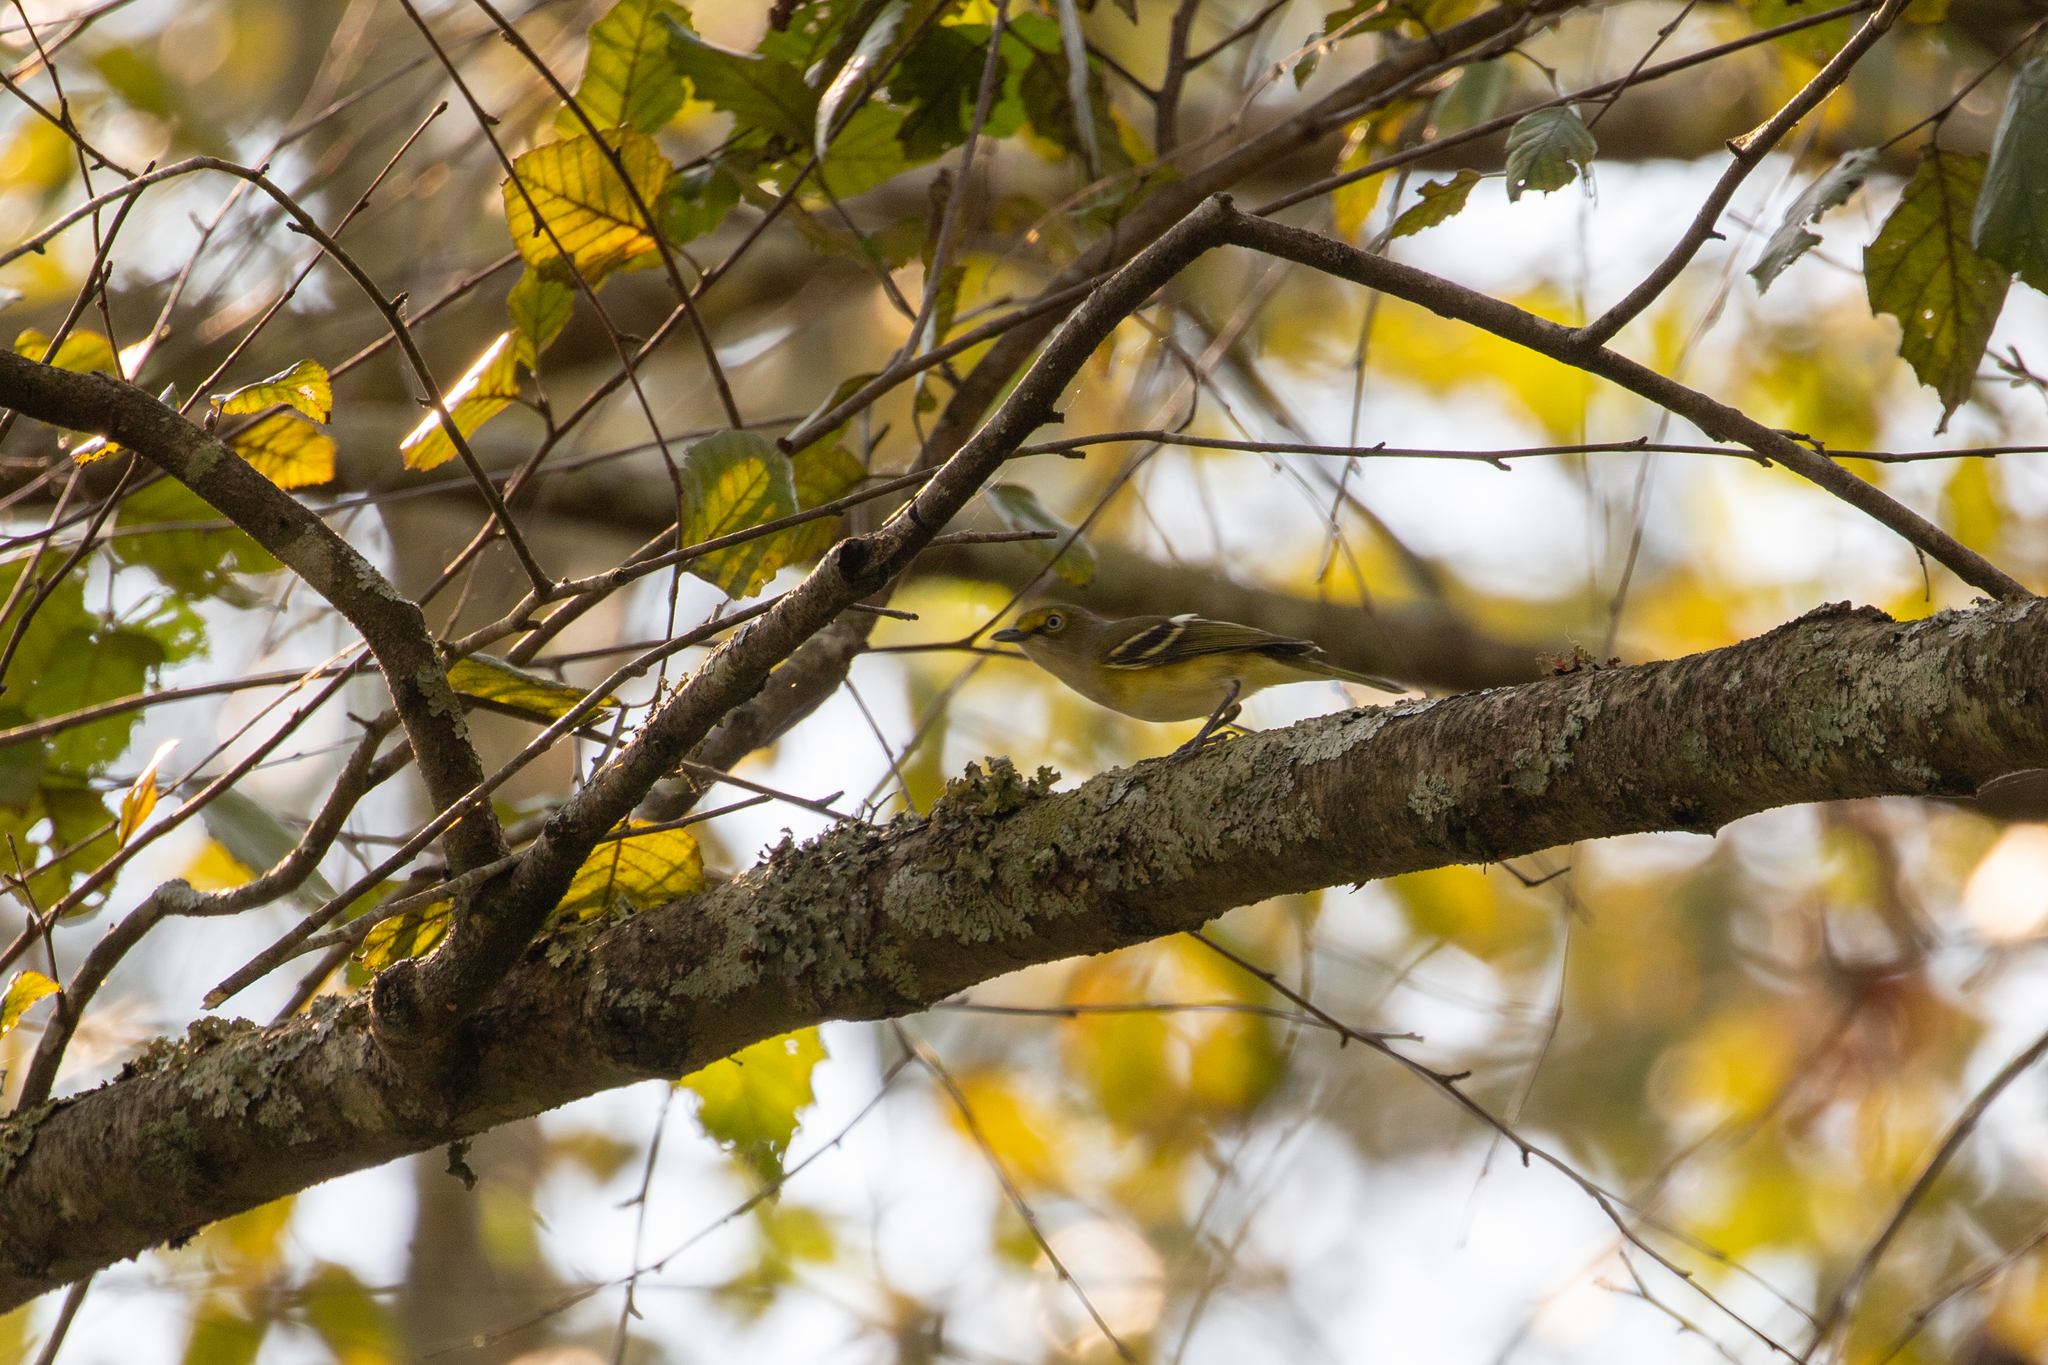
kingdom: Animalia
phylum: Chordata
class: Aves
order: Passeriformes
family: Vireonidae
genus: Vireo
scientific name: Vireo griseus
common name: White-eyed vireo
